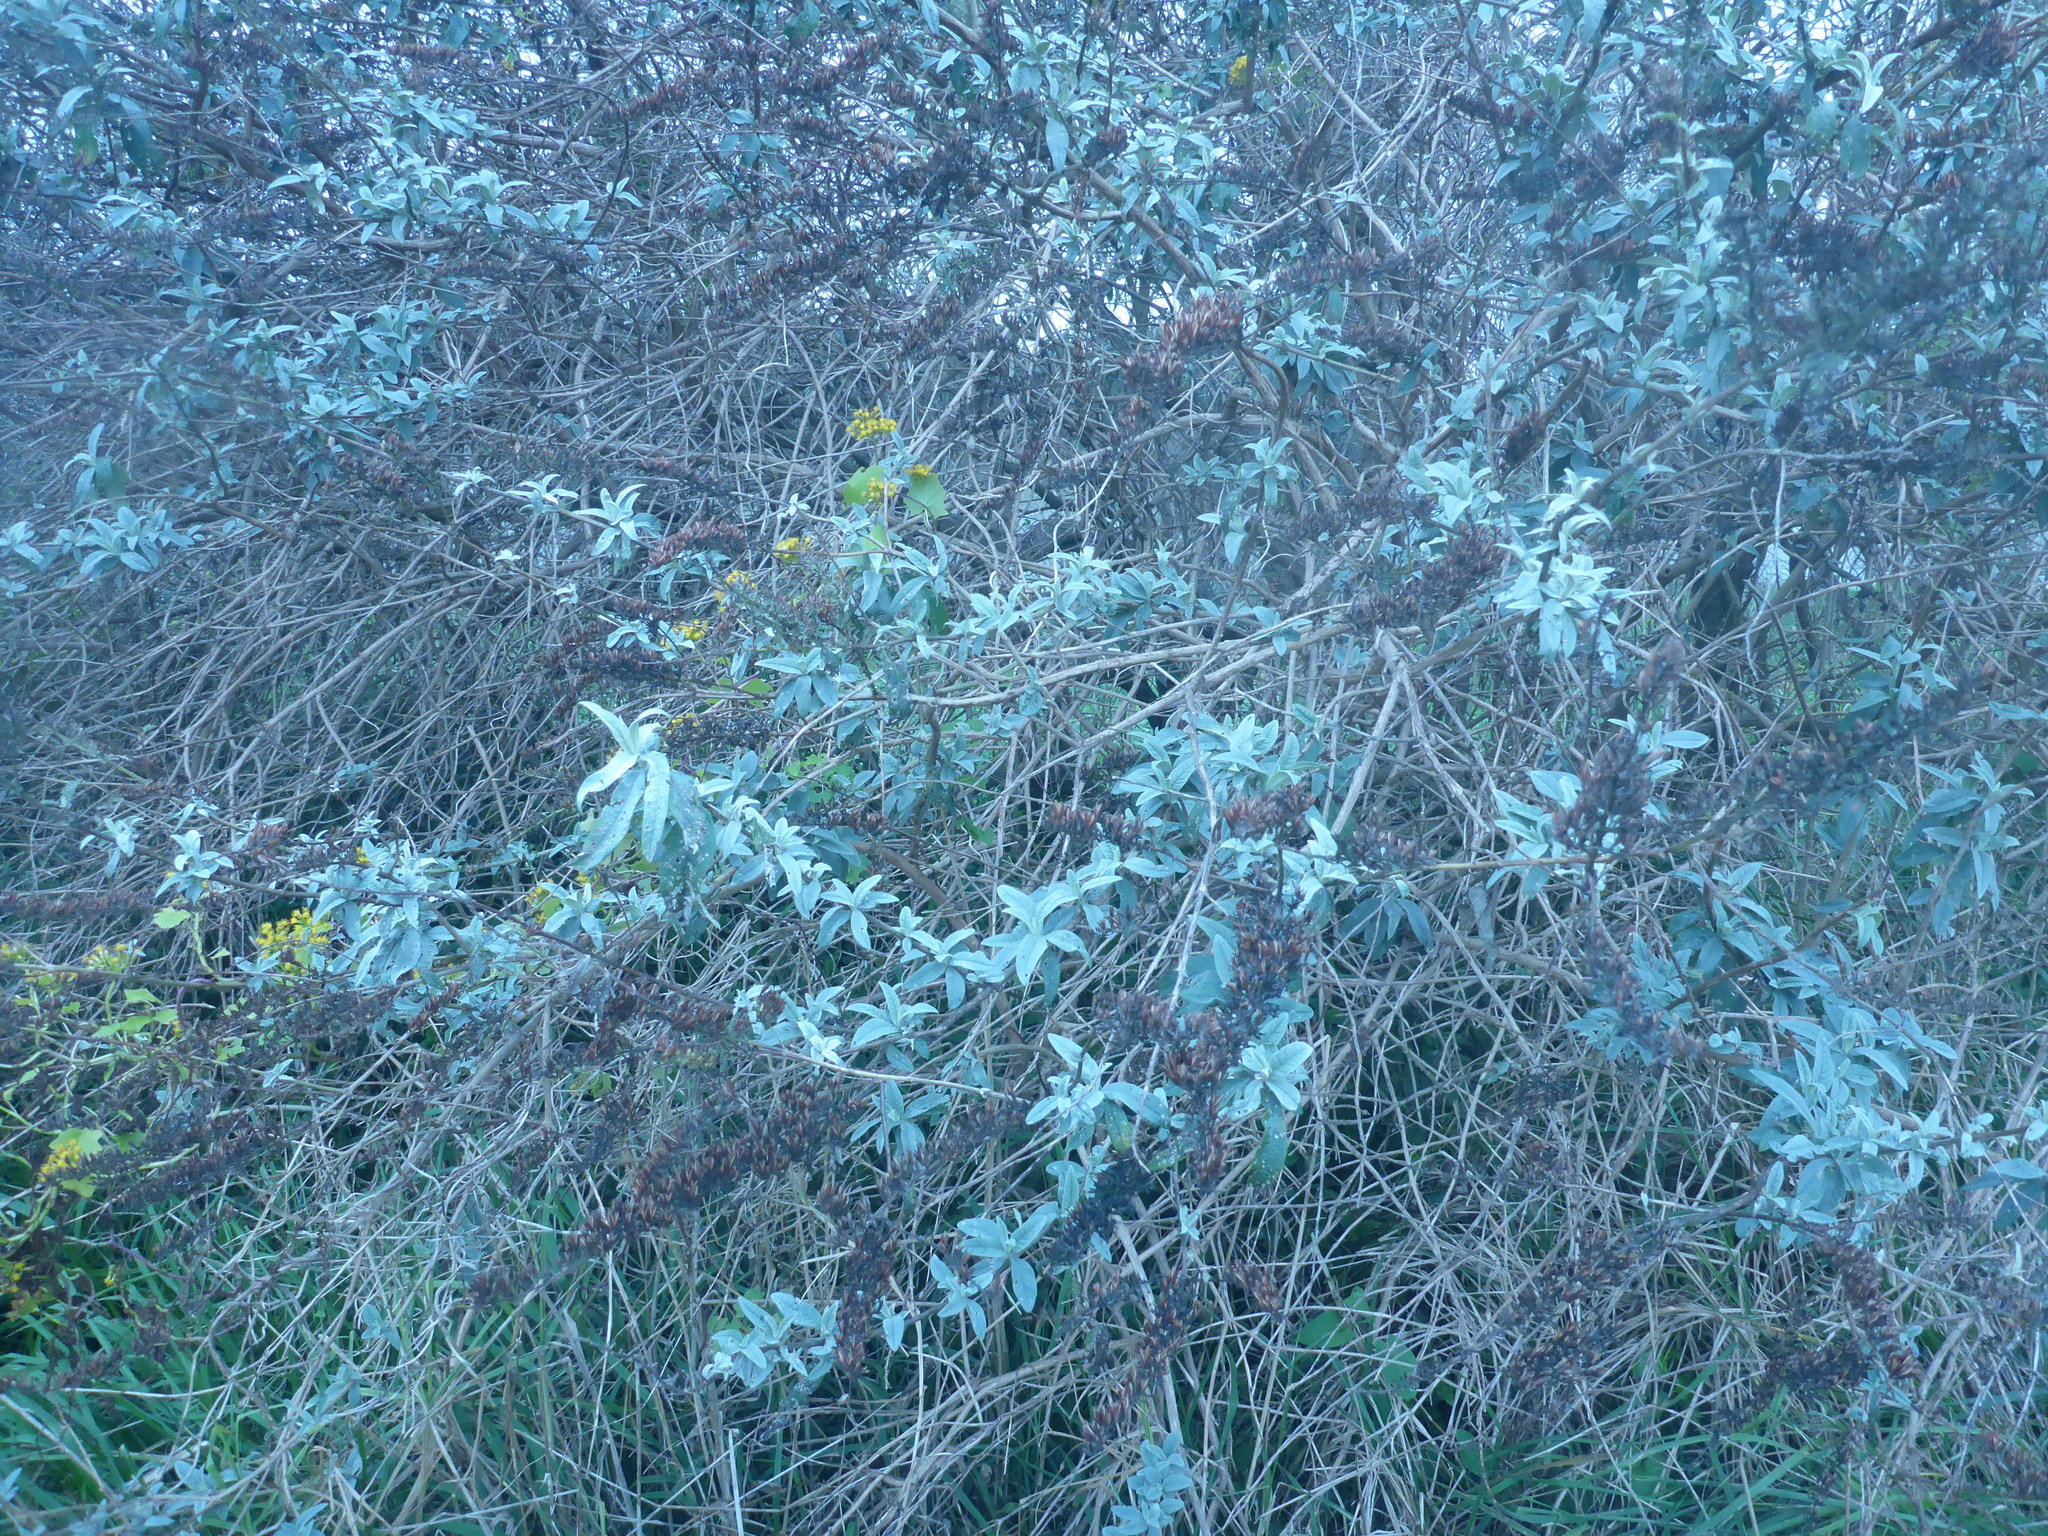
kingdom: Plantae
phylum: Tracheophyta
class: Magnoliopsida
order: Lamiales
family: Scrophulariaceae
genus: Buddleja
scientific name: Buddleja davidii
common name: Butterfly-bush
